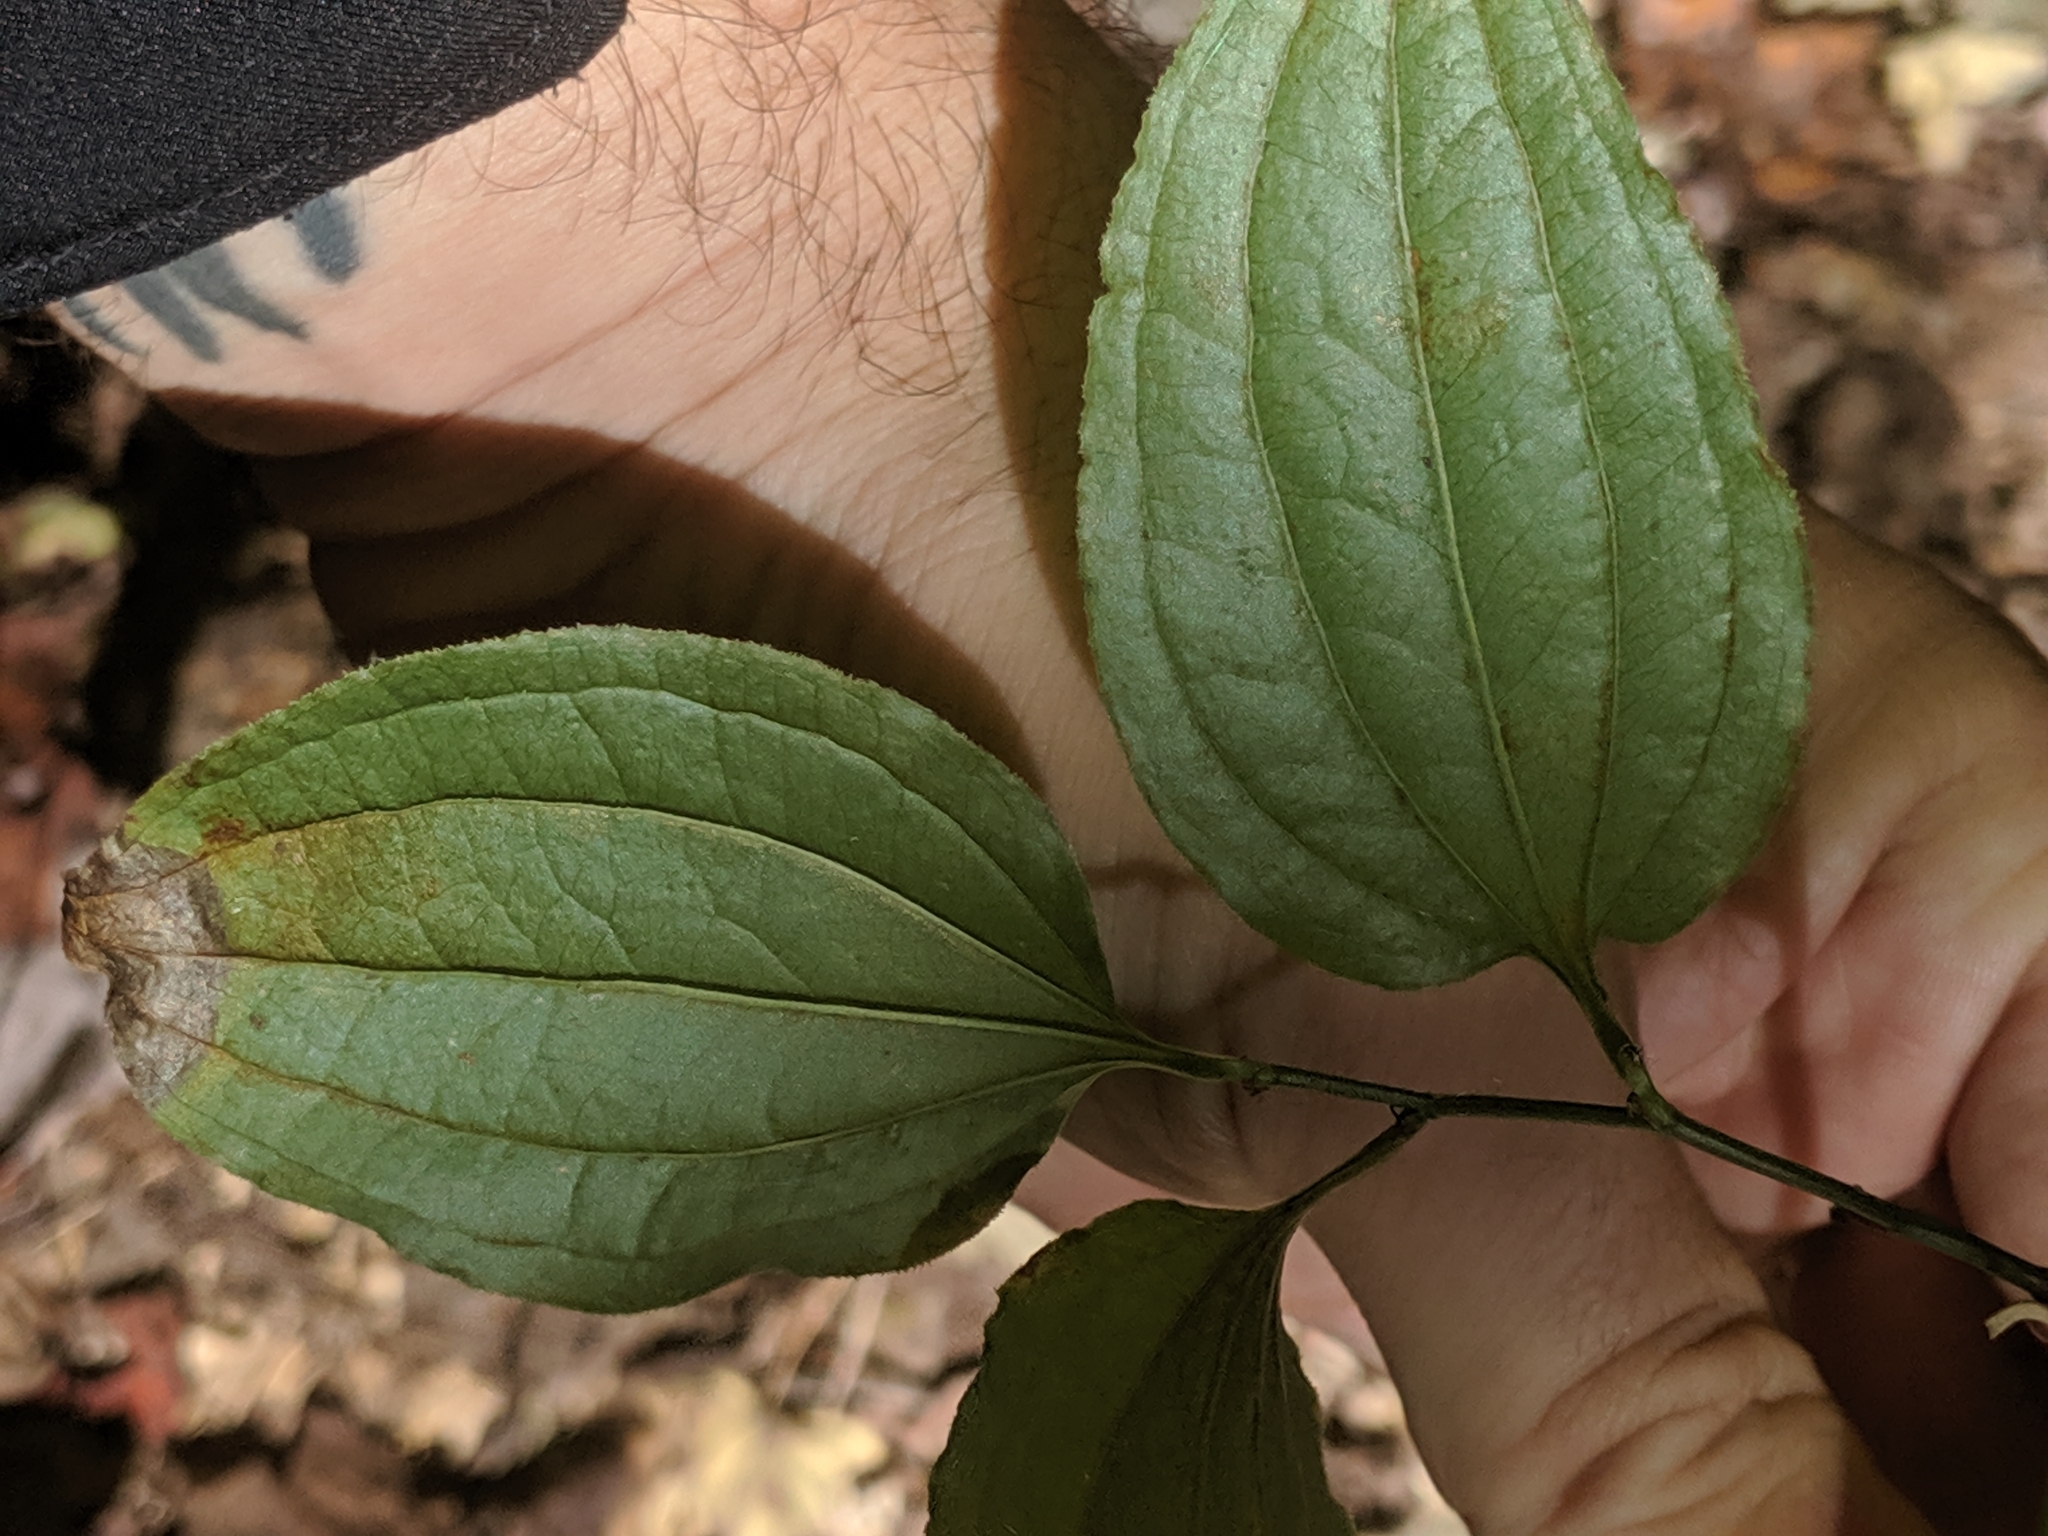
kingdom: Plantae
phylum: Tracheophyta
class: Liliopsida
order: Liliales
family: Smilacaceae
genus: Smilax
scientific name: Smilax tamnoides
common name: Hellfetter
